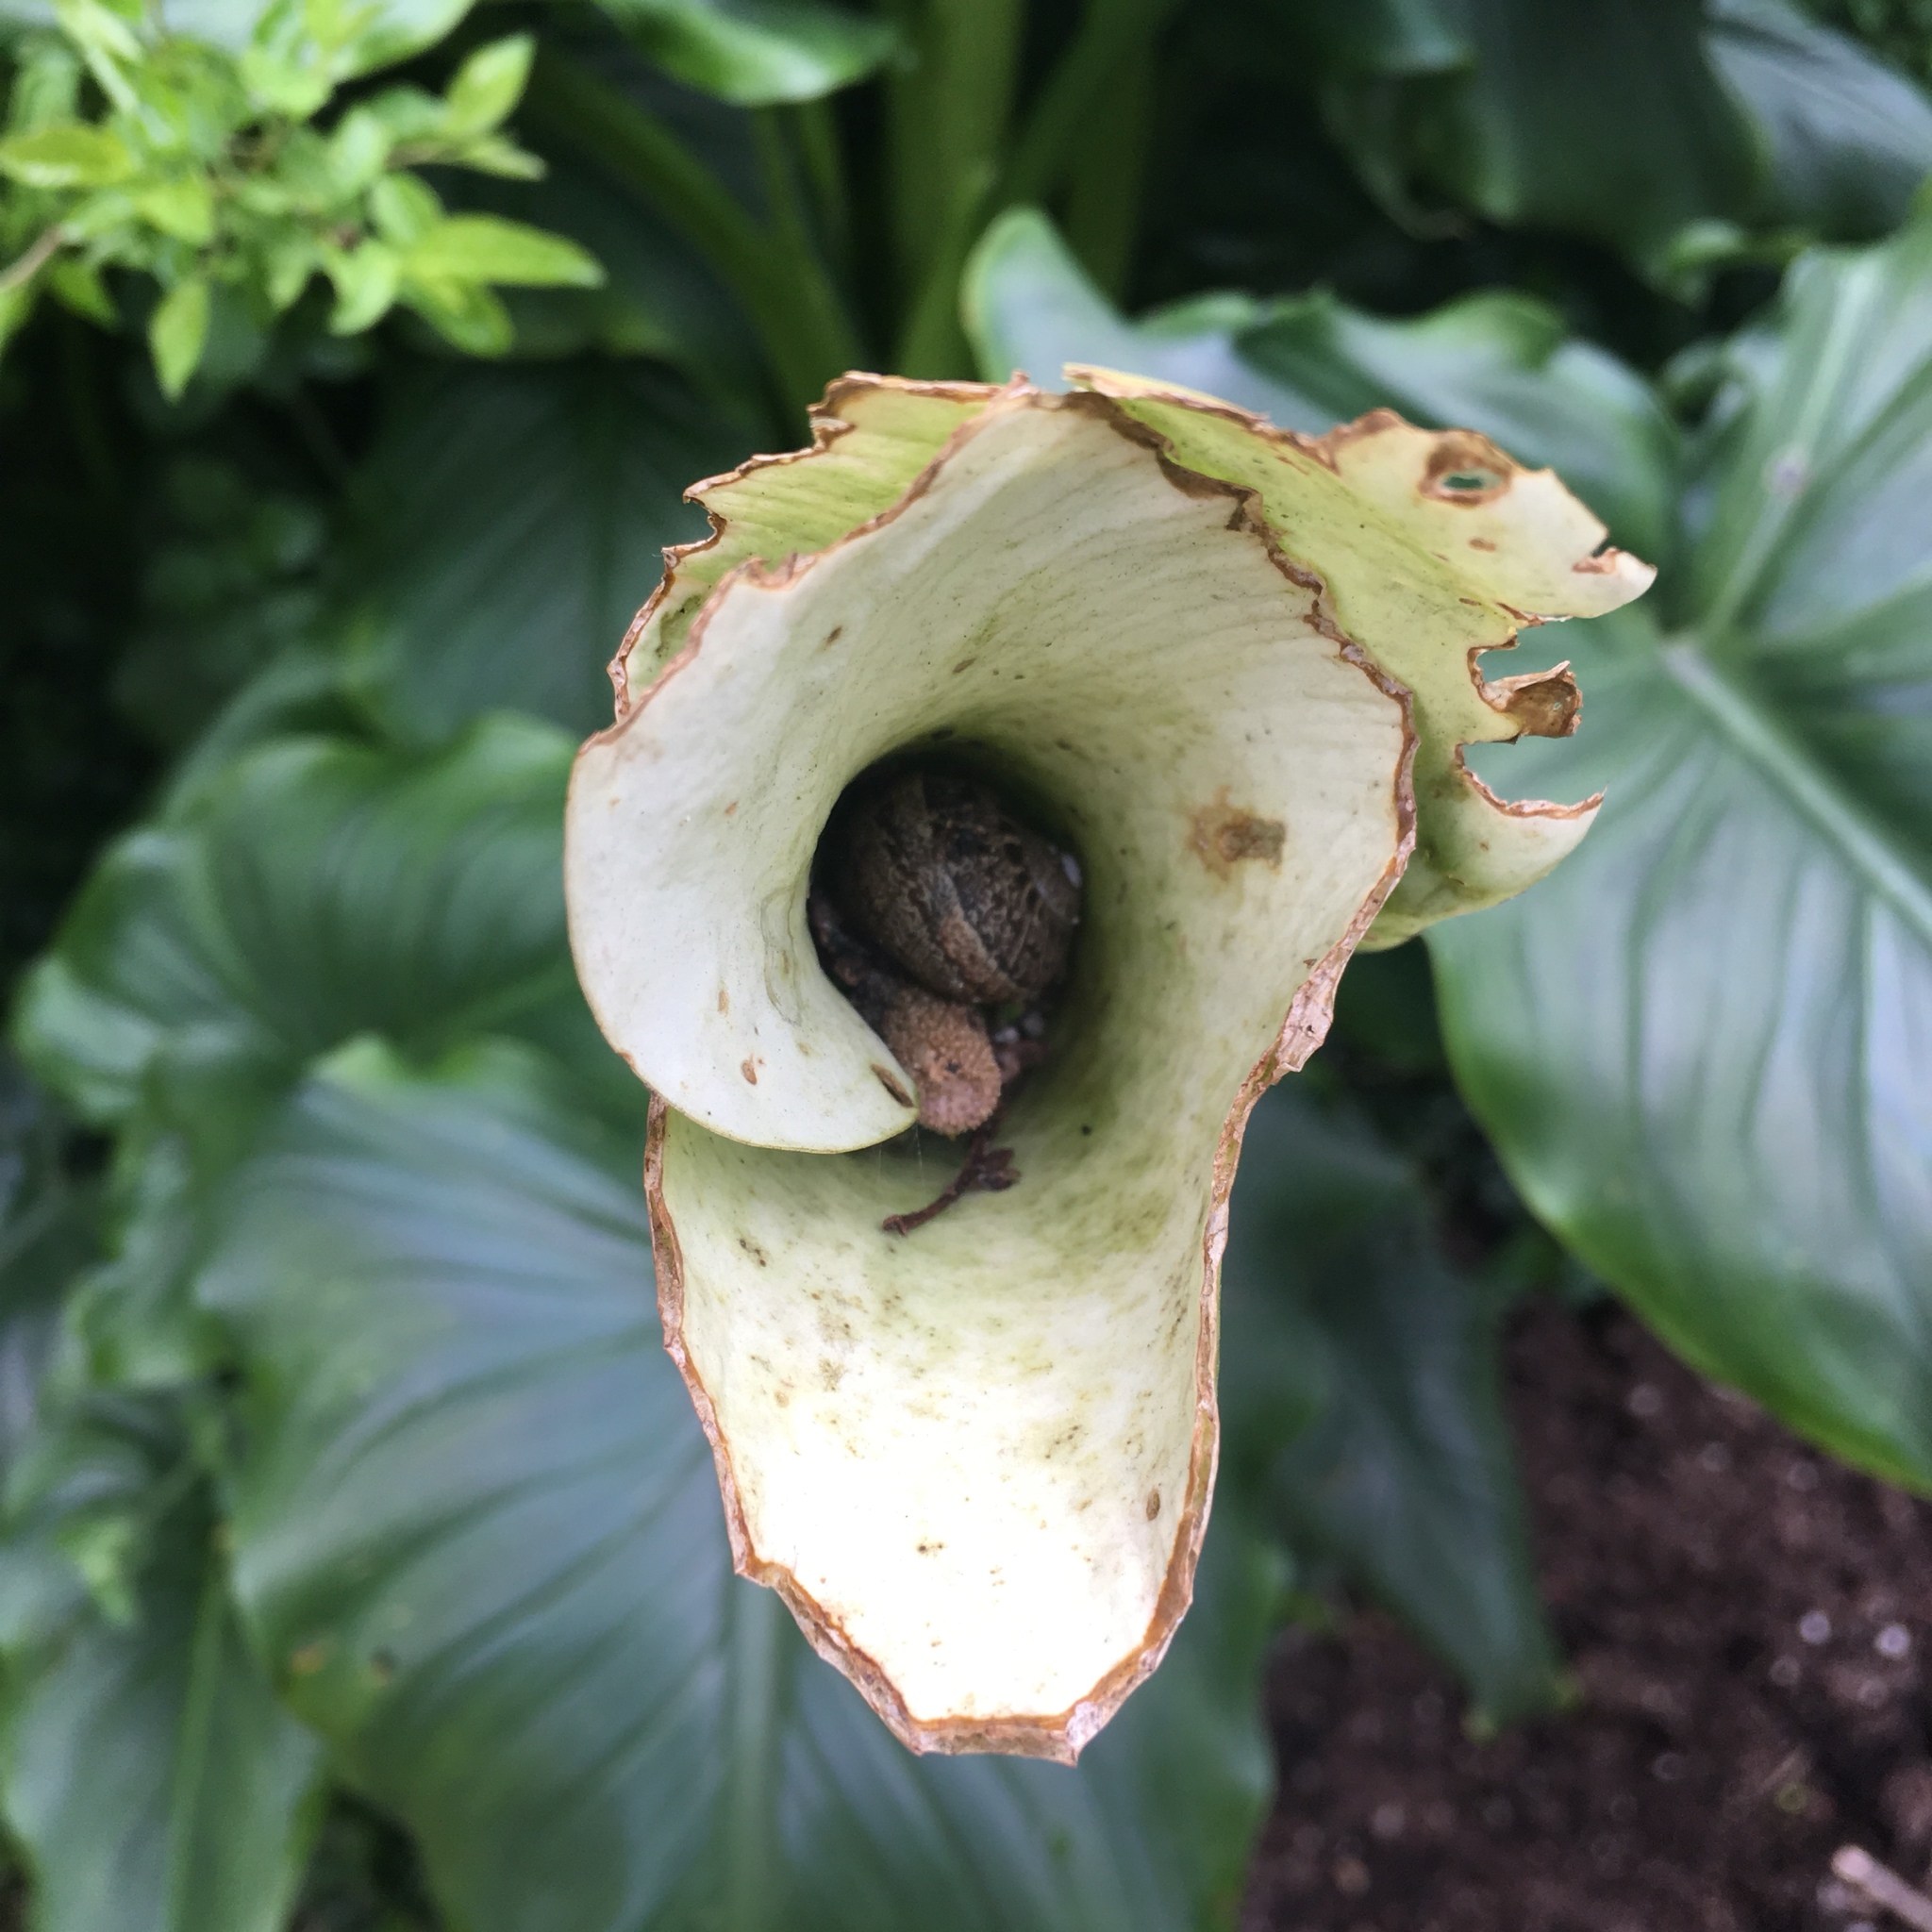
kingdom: Animalia
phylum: Mollusca
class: Gastropoda
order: Stylommatophora
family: Helicidae
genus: Cornu
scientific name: Cornu aspersum
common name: Brown garden snail
